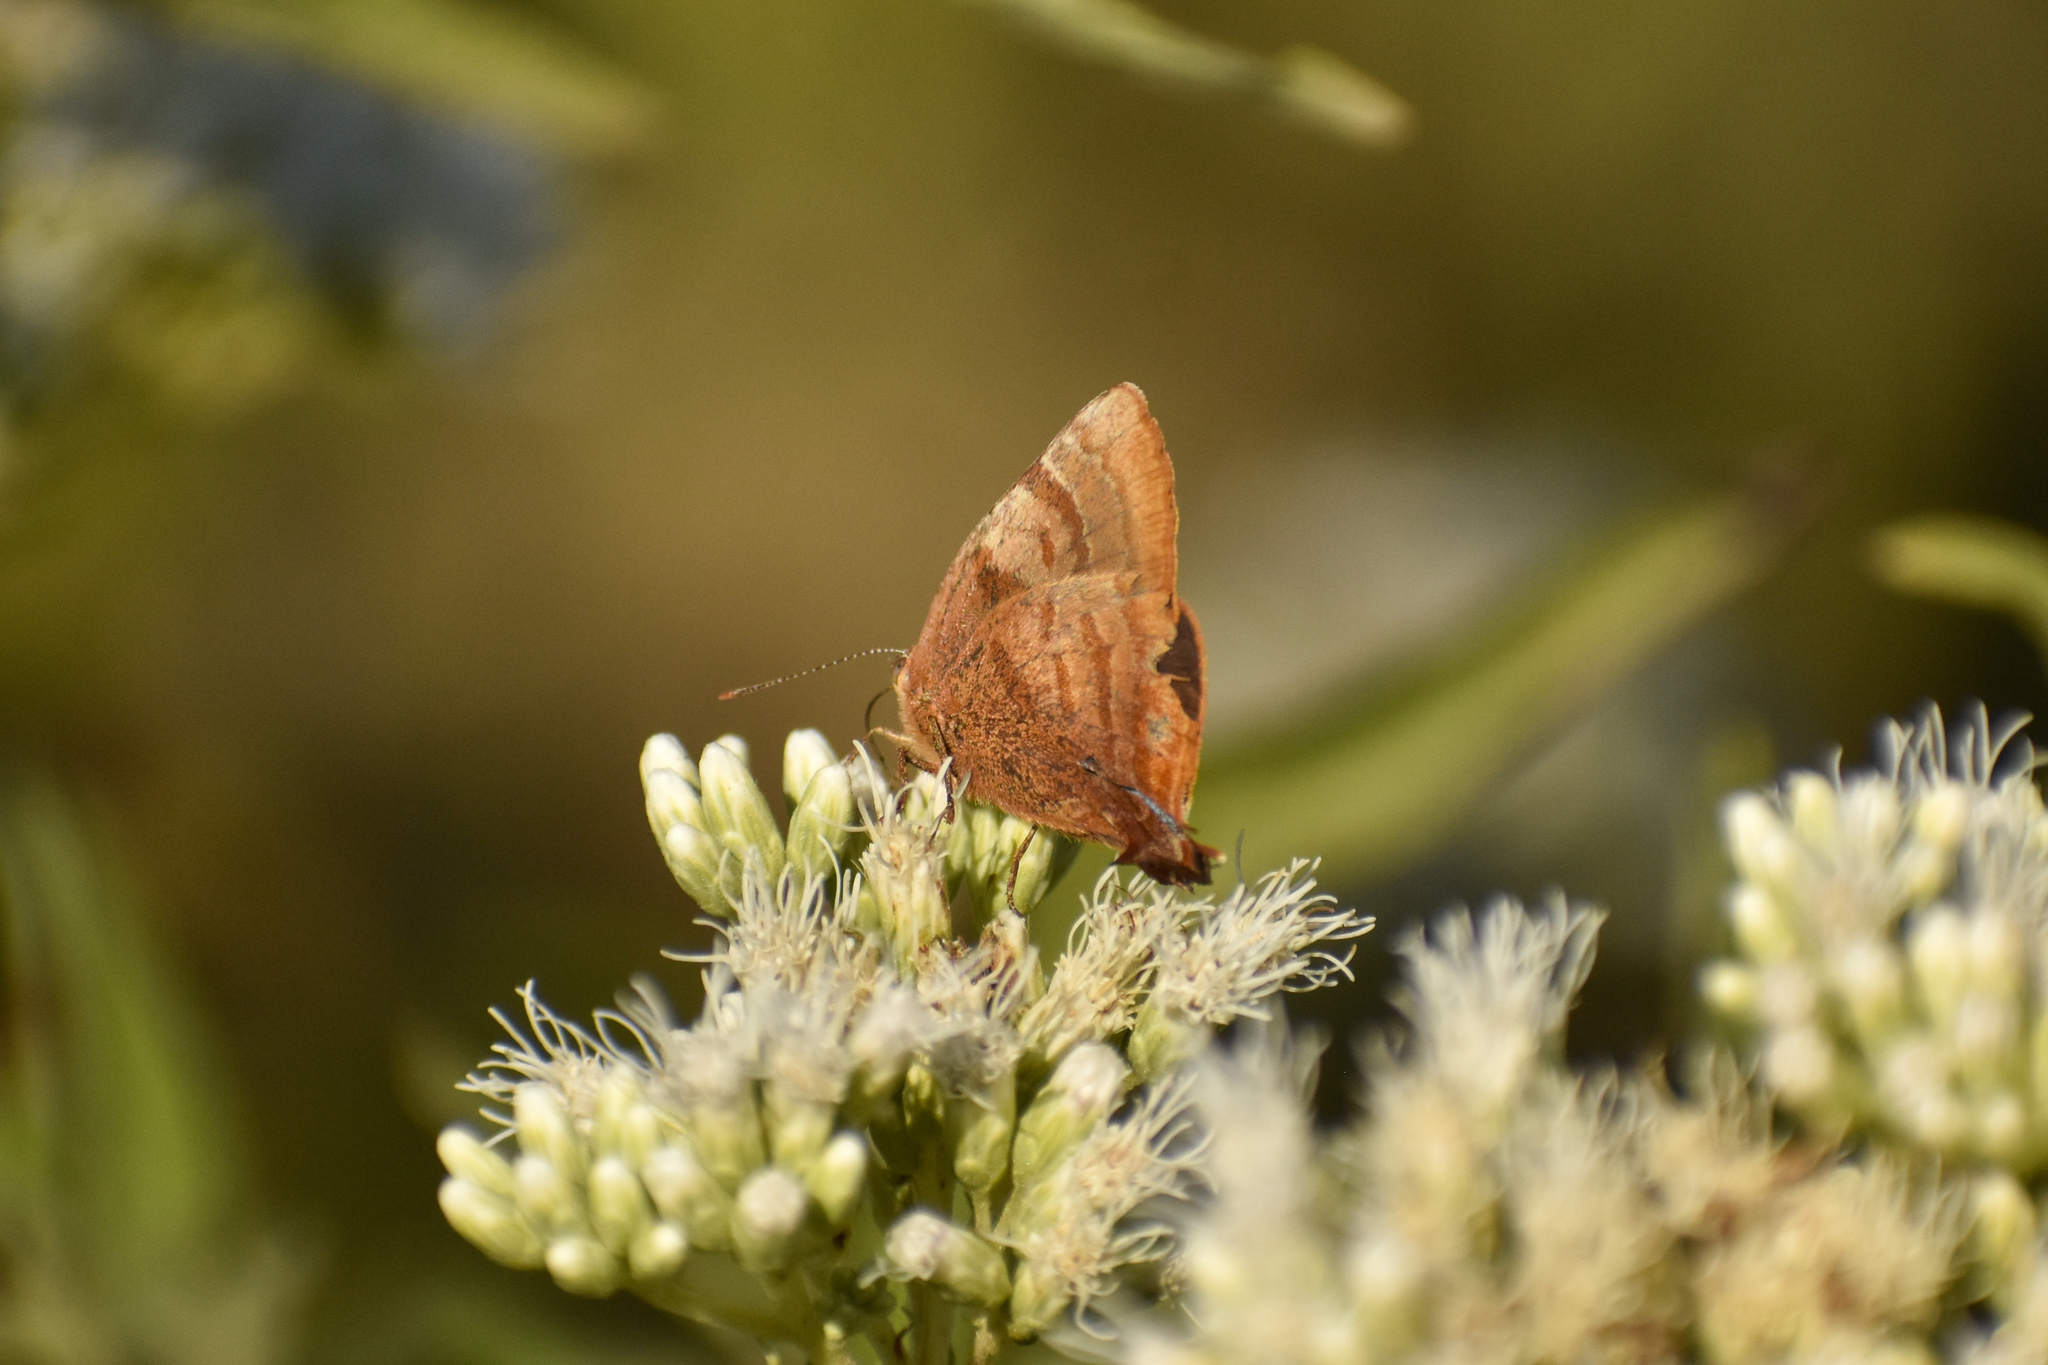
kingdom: Animalia
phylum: Arthropoda
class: Insecta
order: Lepidoptera
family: Lycaenidae
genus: Thecla
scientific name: Thecla marius
